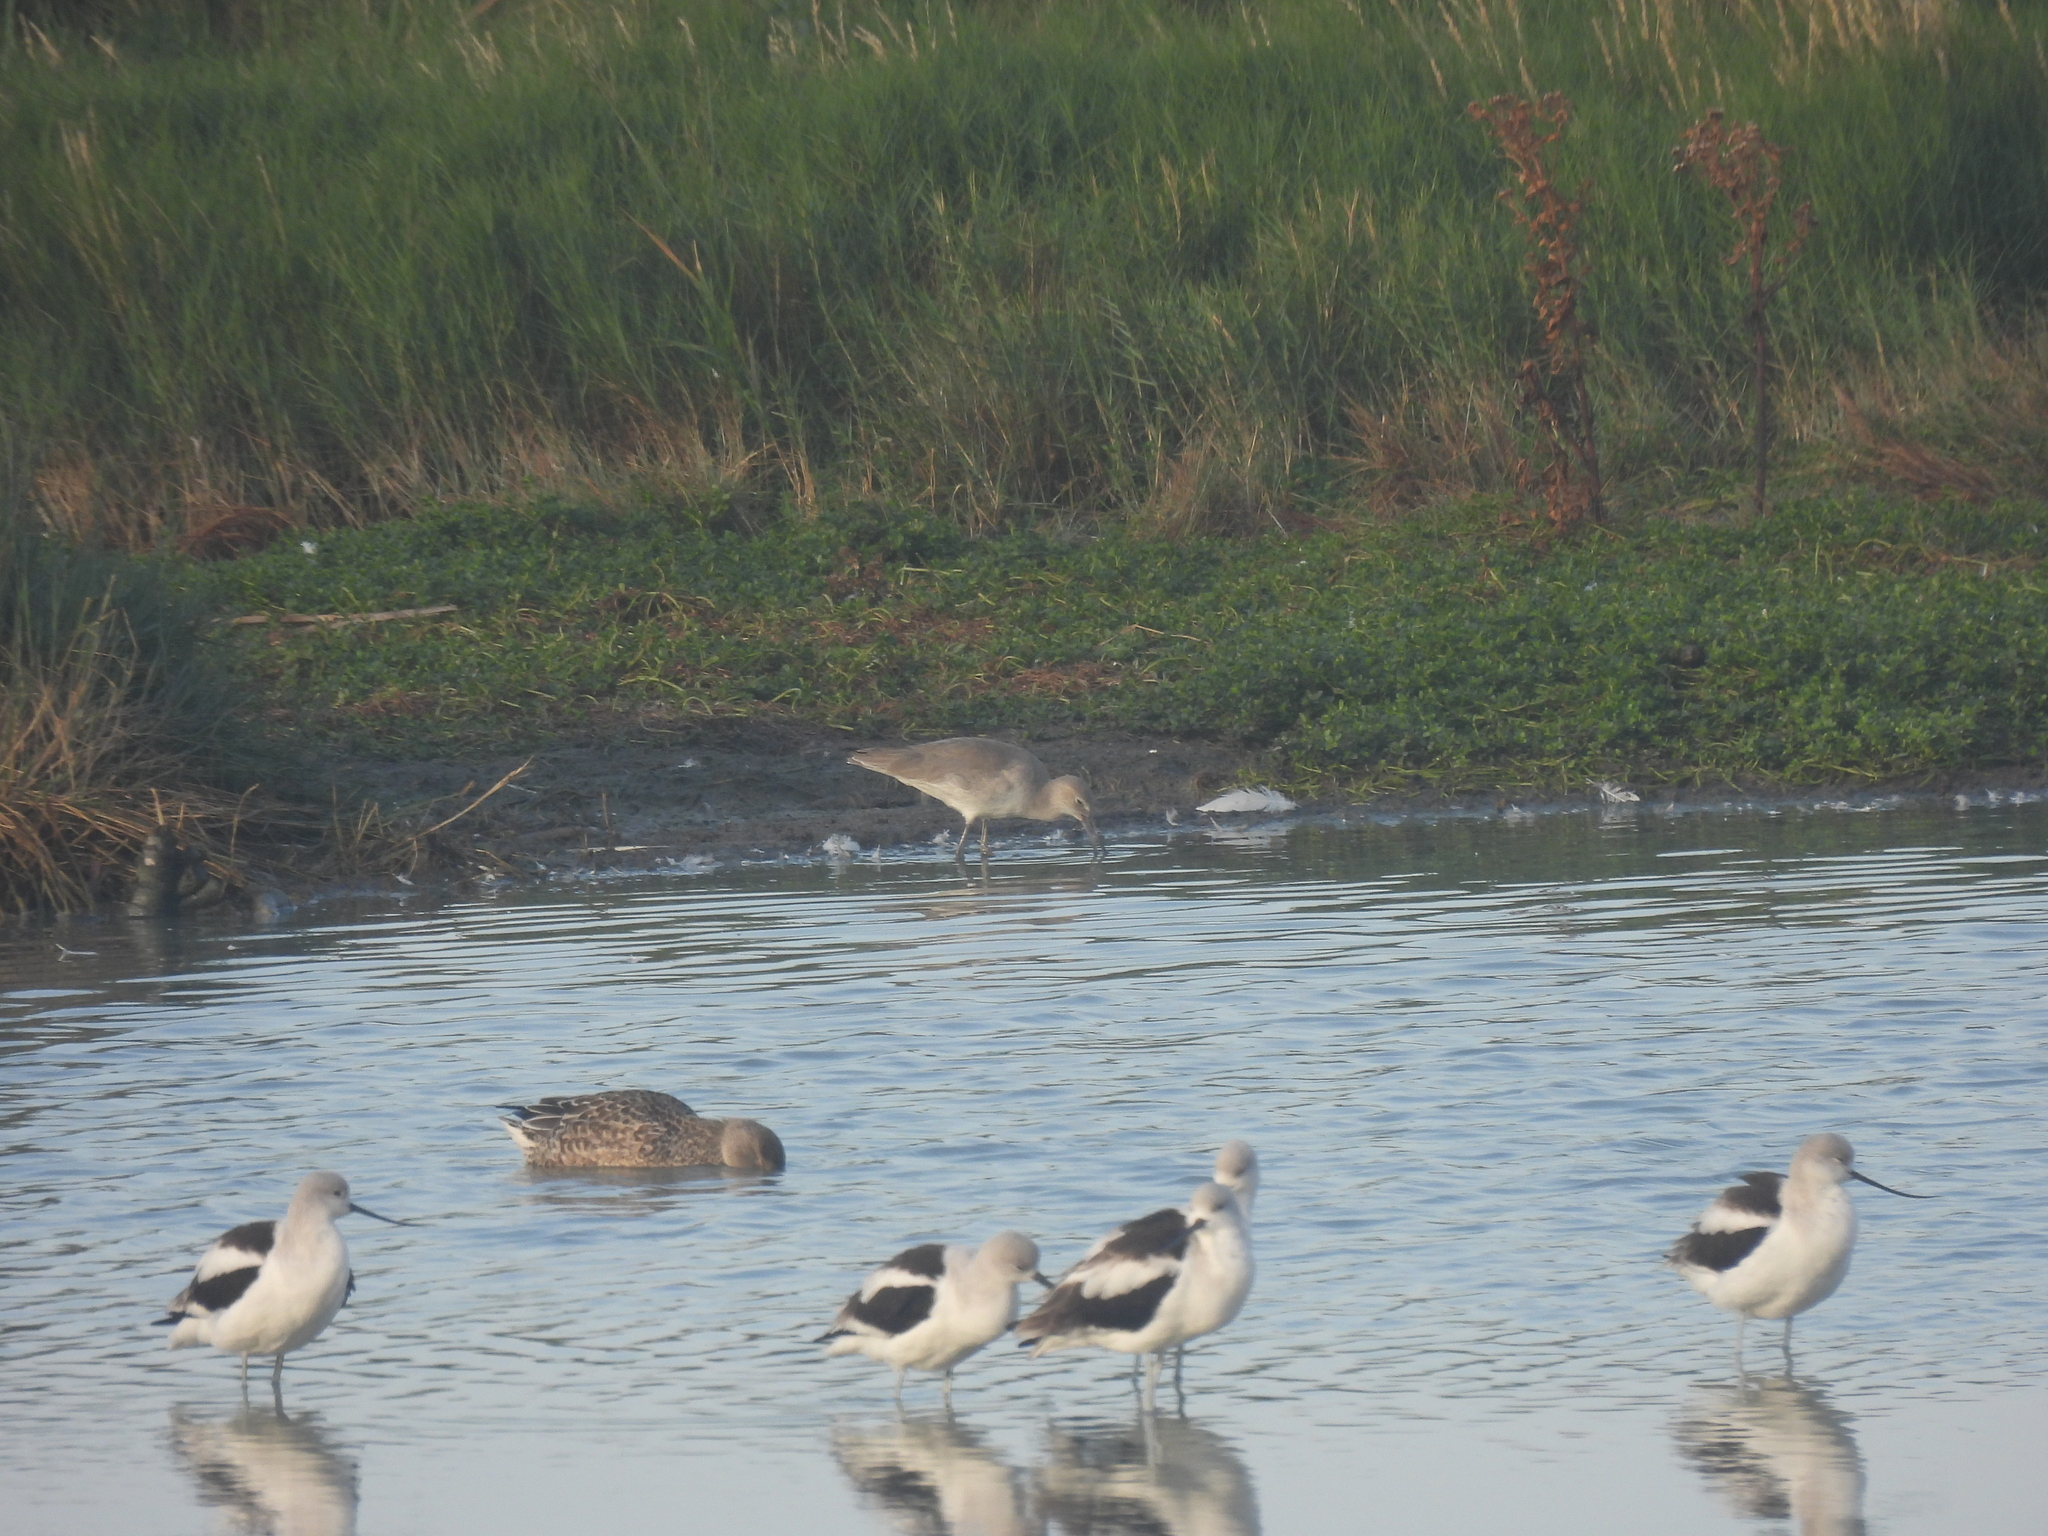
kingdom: Animalia
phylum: Chordata
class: Aves
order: Charadriiformes
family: Scolopacidae
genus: Tringa
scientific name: Tringa semipalmata
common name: Willet
